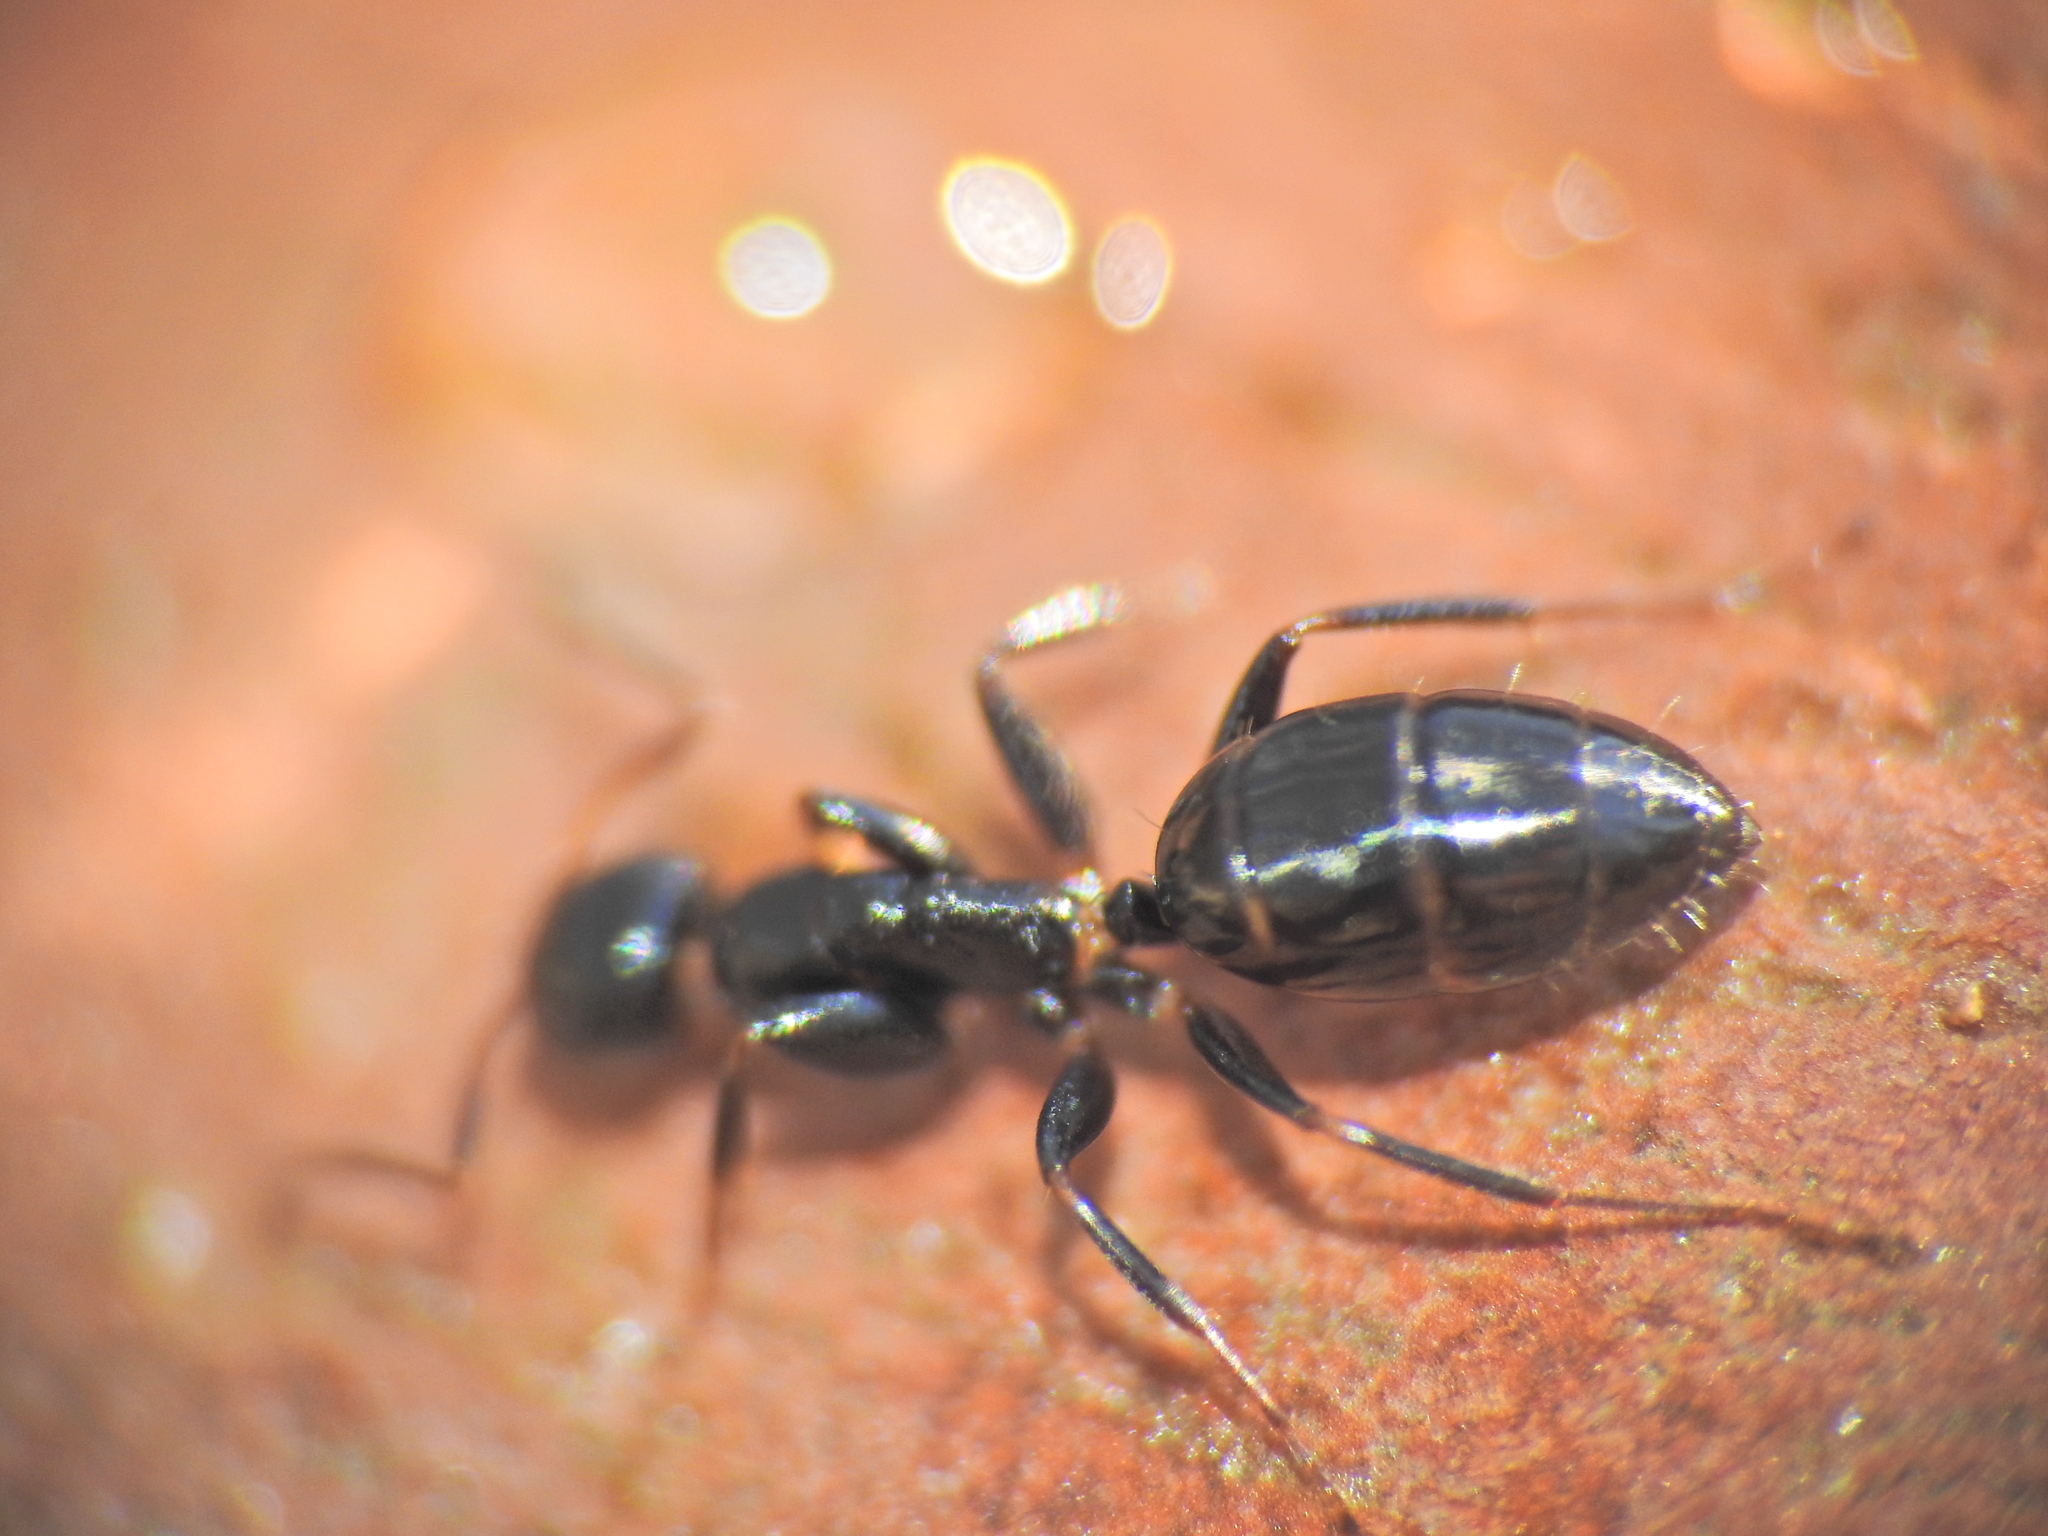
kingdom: Animalia
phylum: Arthropoda
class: Insecta
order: Hymenoptera
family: Formicidae
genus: Colobopsis
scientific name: Colobopsis
